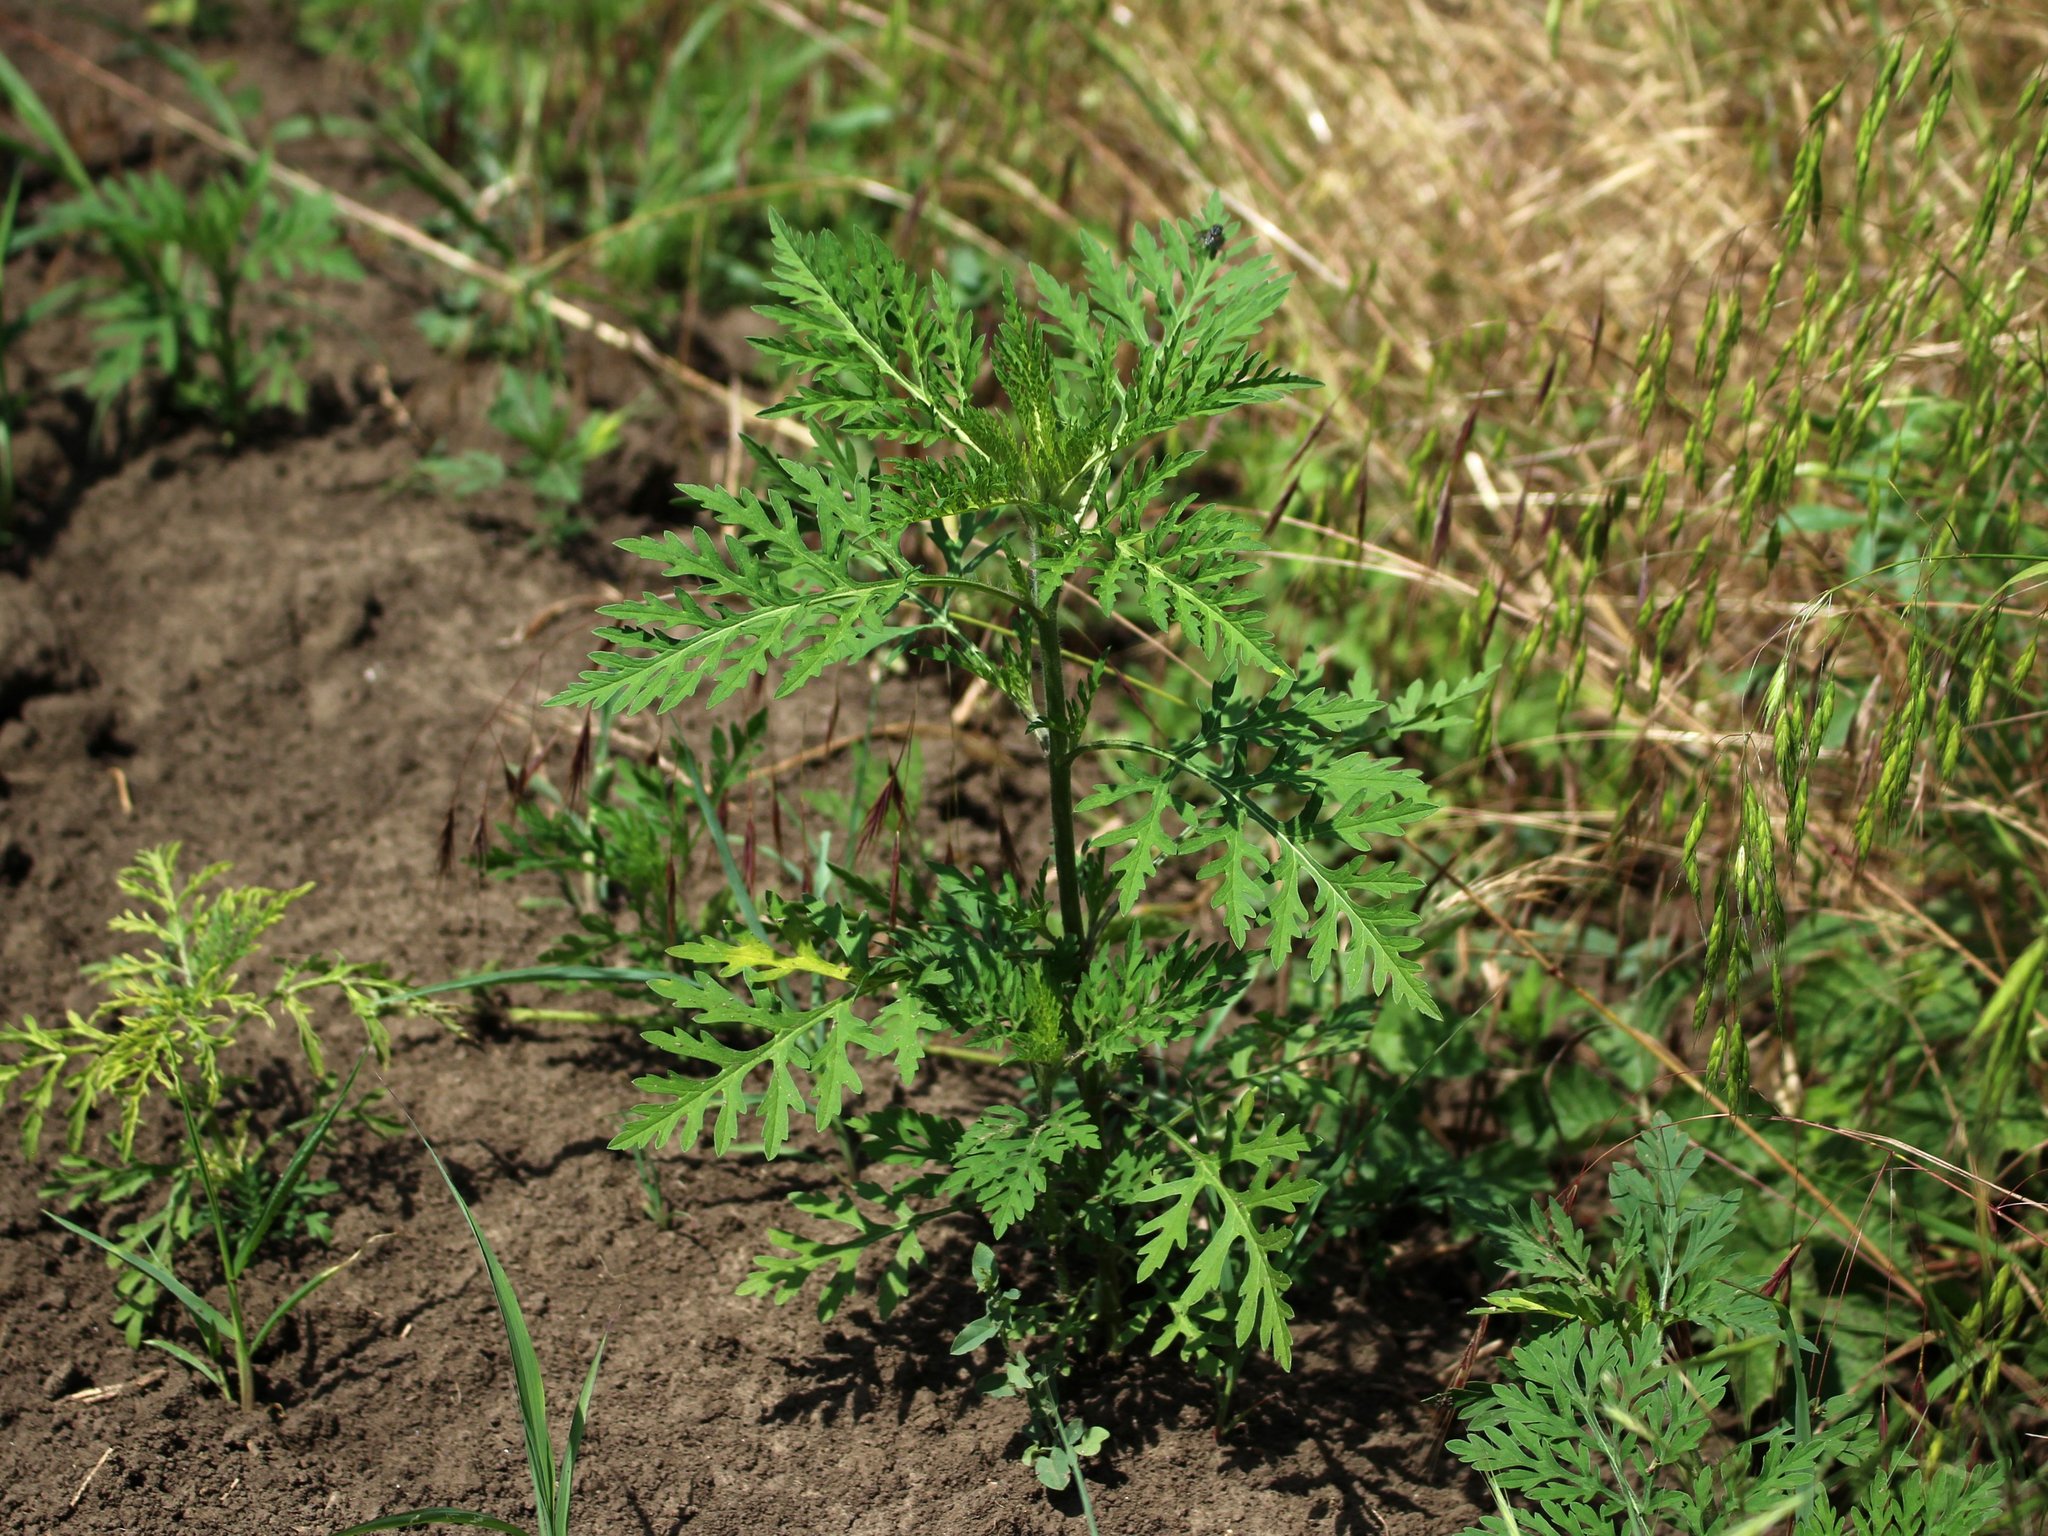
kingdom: Plantae
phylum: Tracheophyta
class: Magnoliopsida
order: Asterales
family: Asteraceae
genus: Ambrosia
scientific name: Ambrosia artemisiifolia
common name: Annual ragweed
